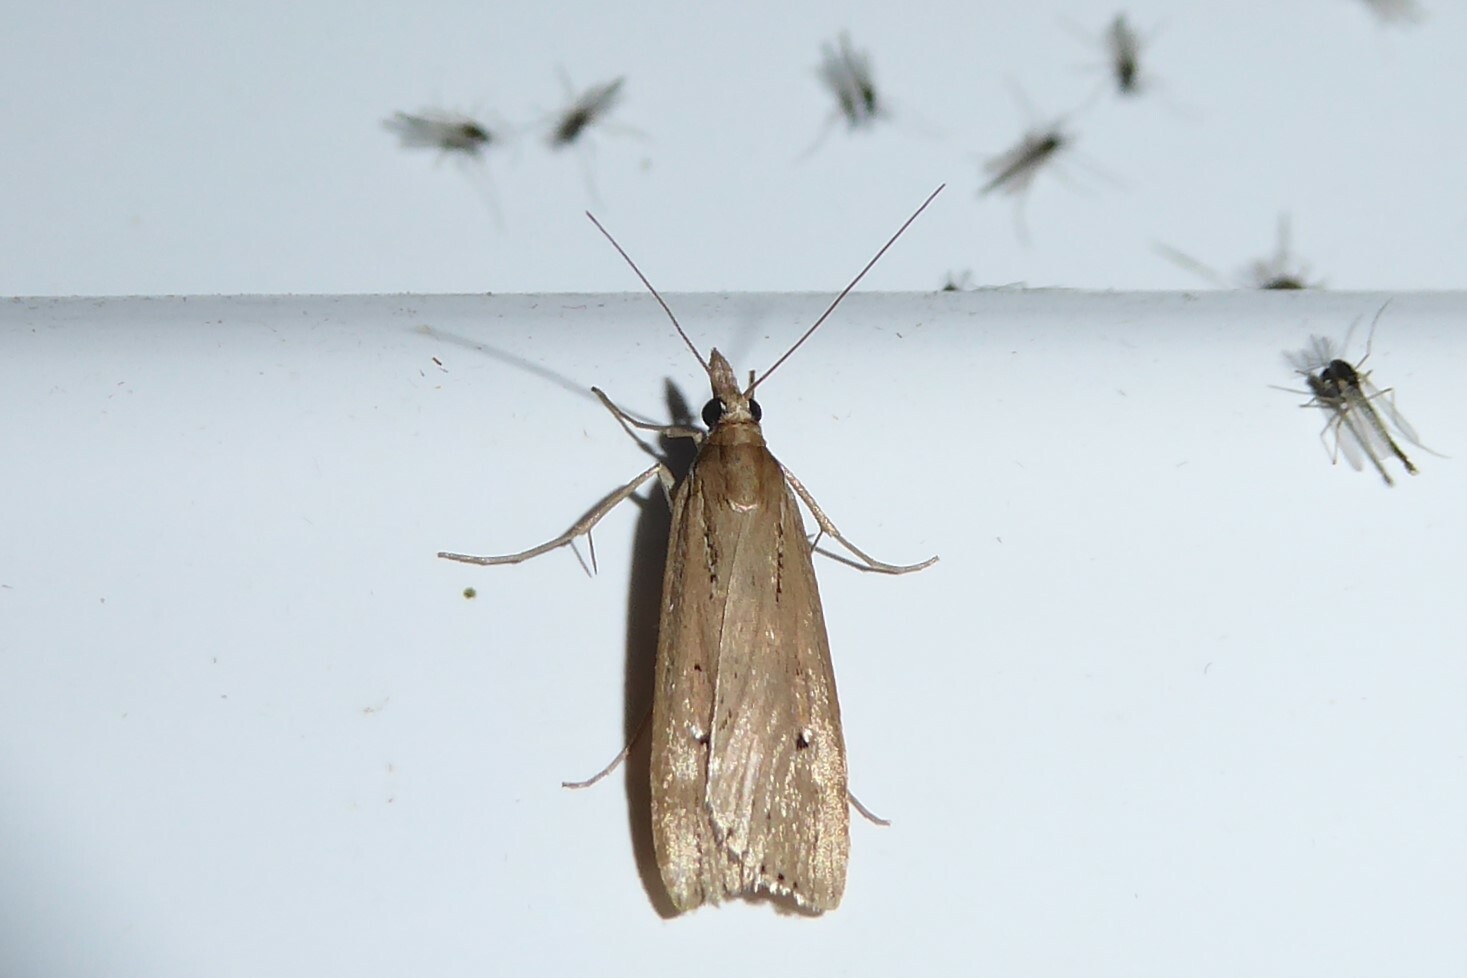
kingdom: Animalia
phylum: Arthropoda
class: Insecta
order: Lepidoptera
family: Crambidae
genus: Eudonia
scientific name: Eudonia sabulosella
